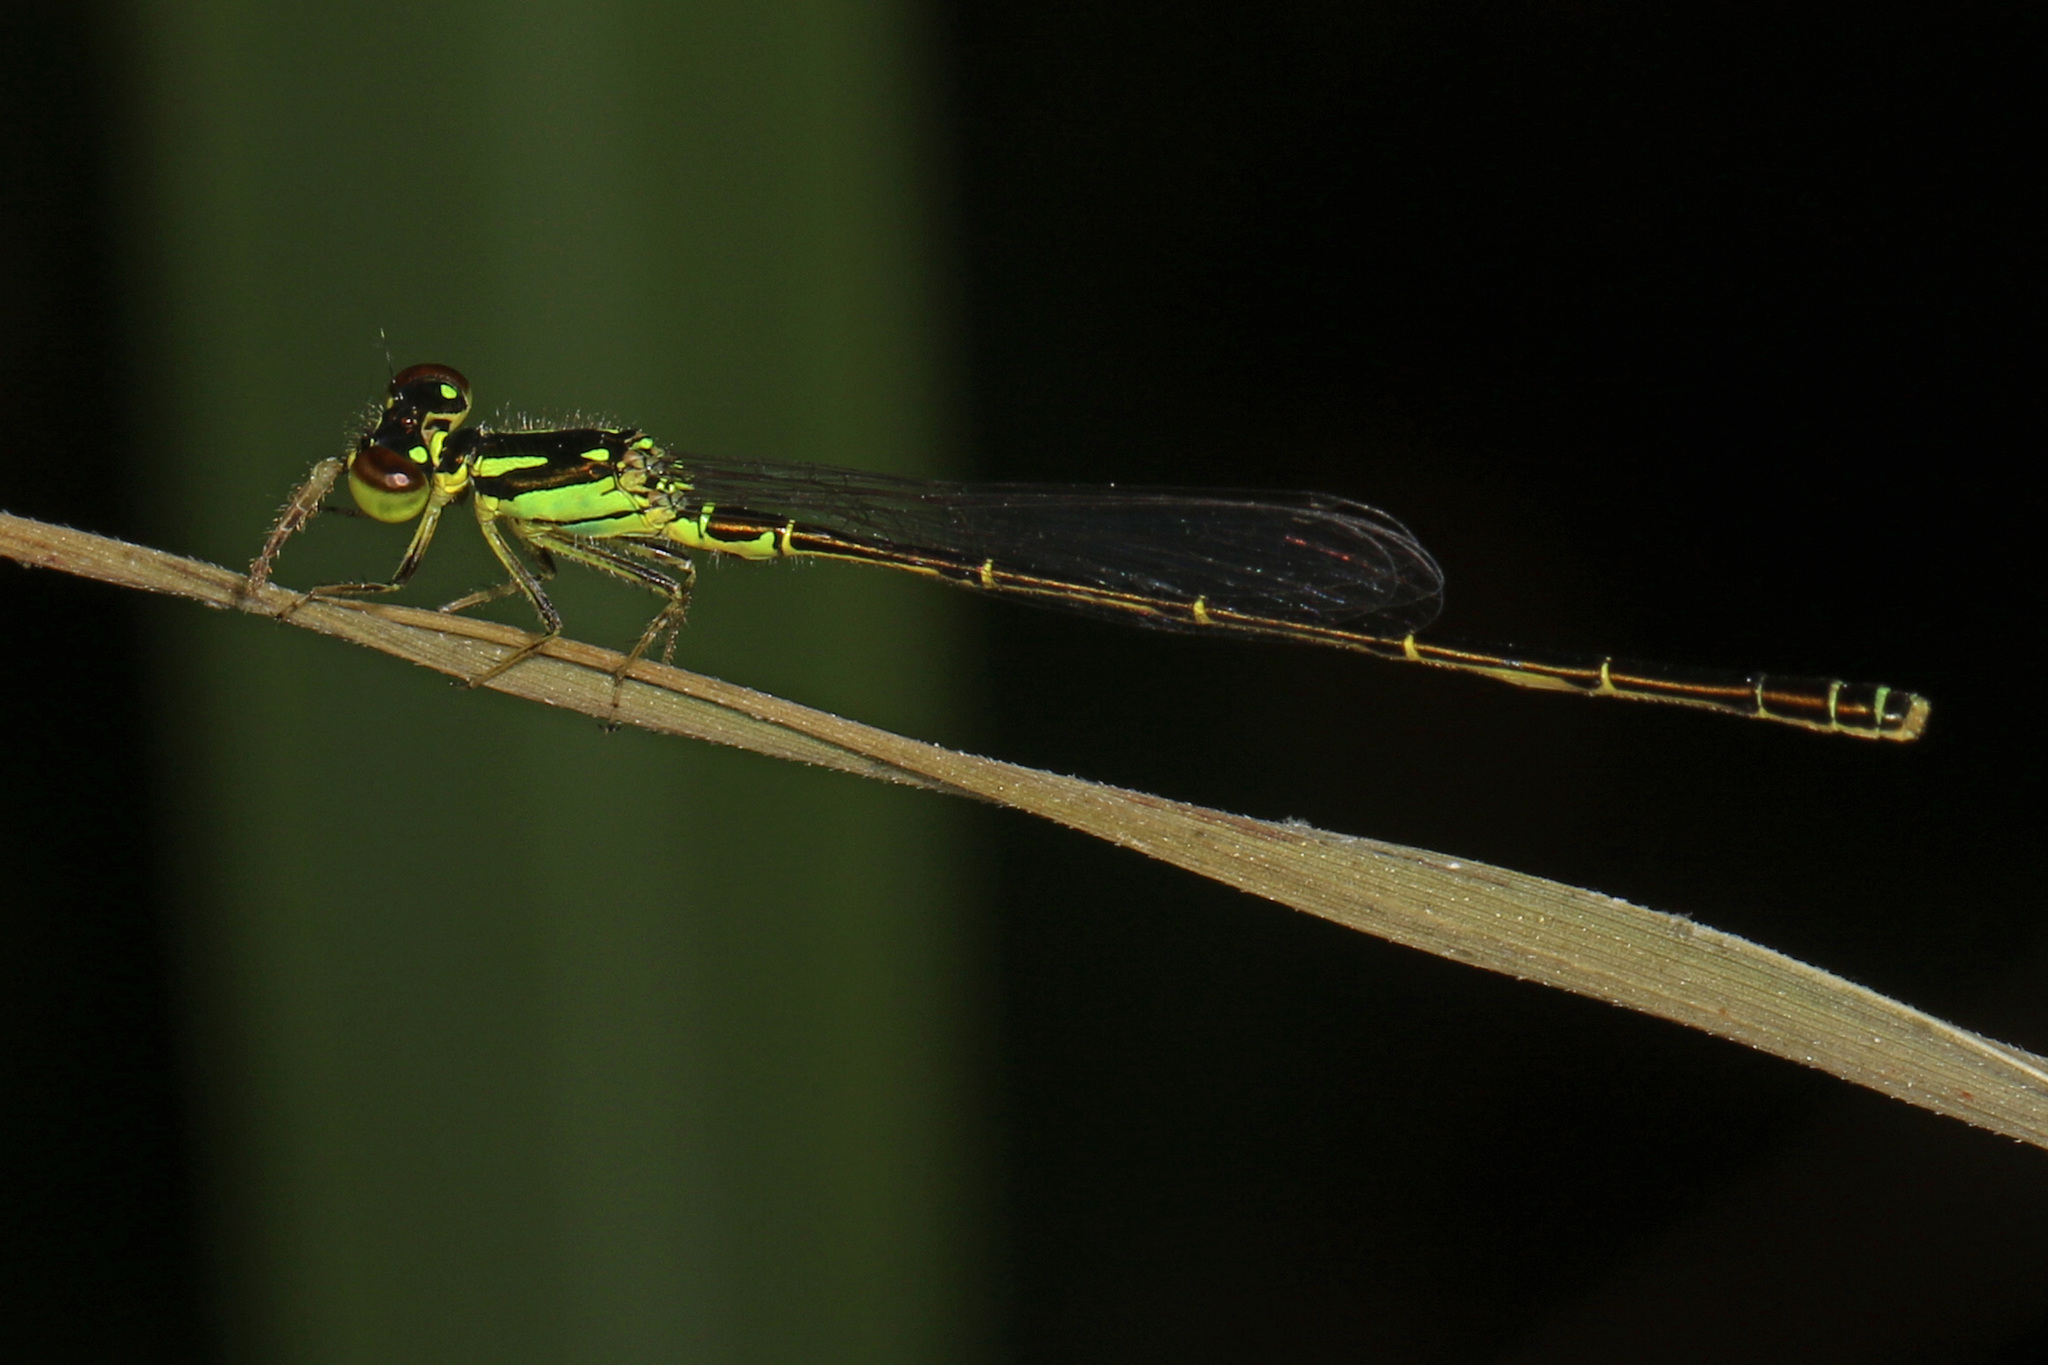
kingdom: Animalia
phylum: Arthropoda
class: Insecta
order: Odonata
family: Coenagrionidae
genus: Ischnura
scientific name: Ischnura posita
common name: Fragile forktail
